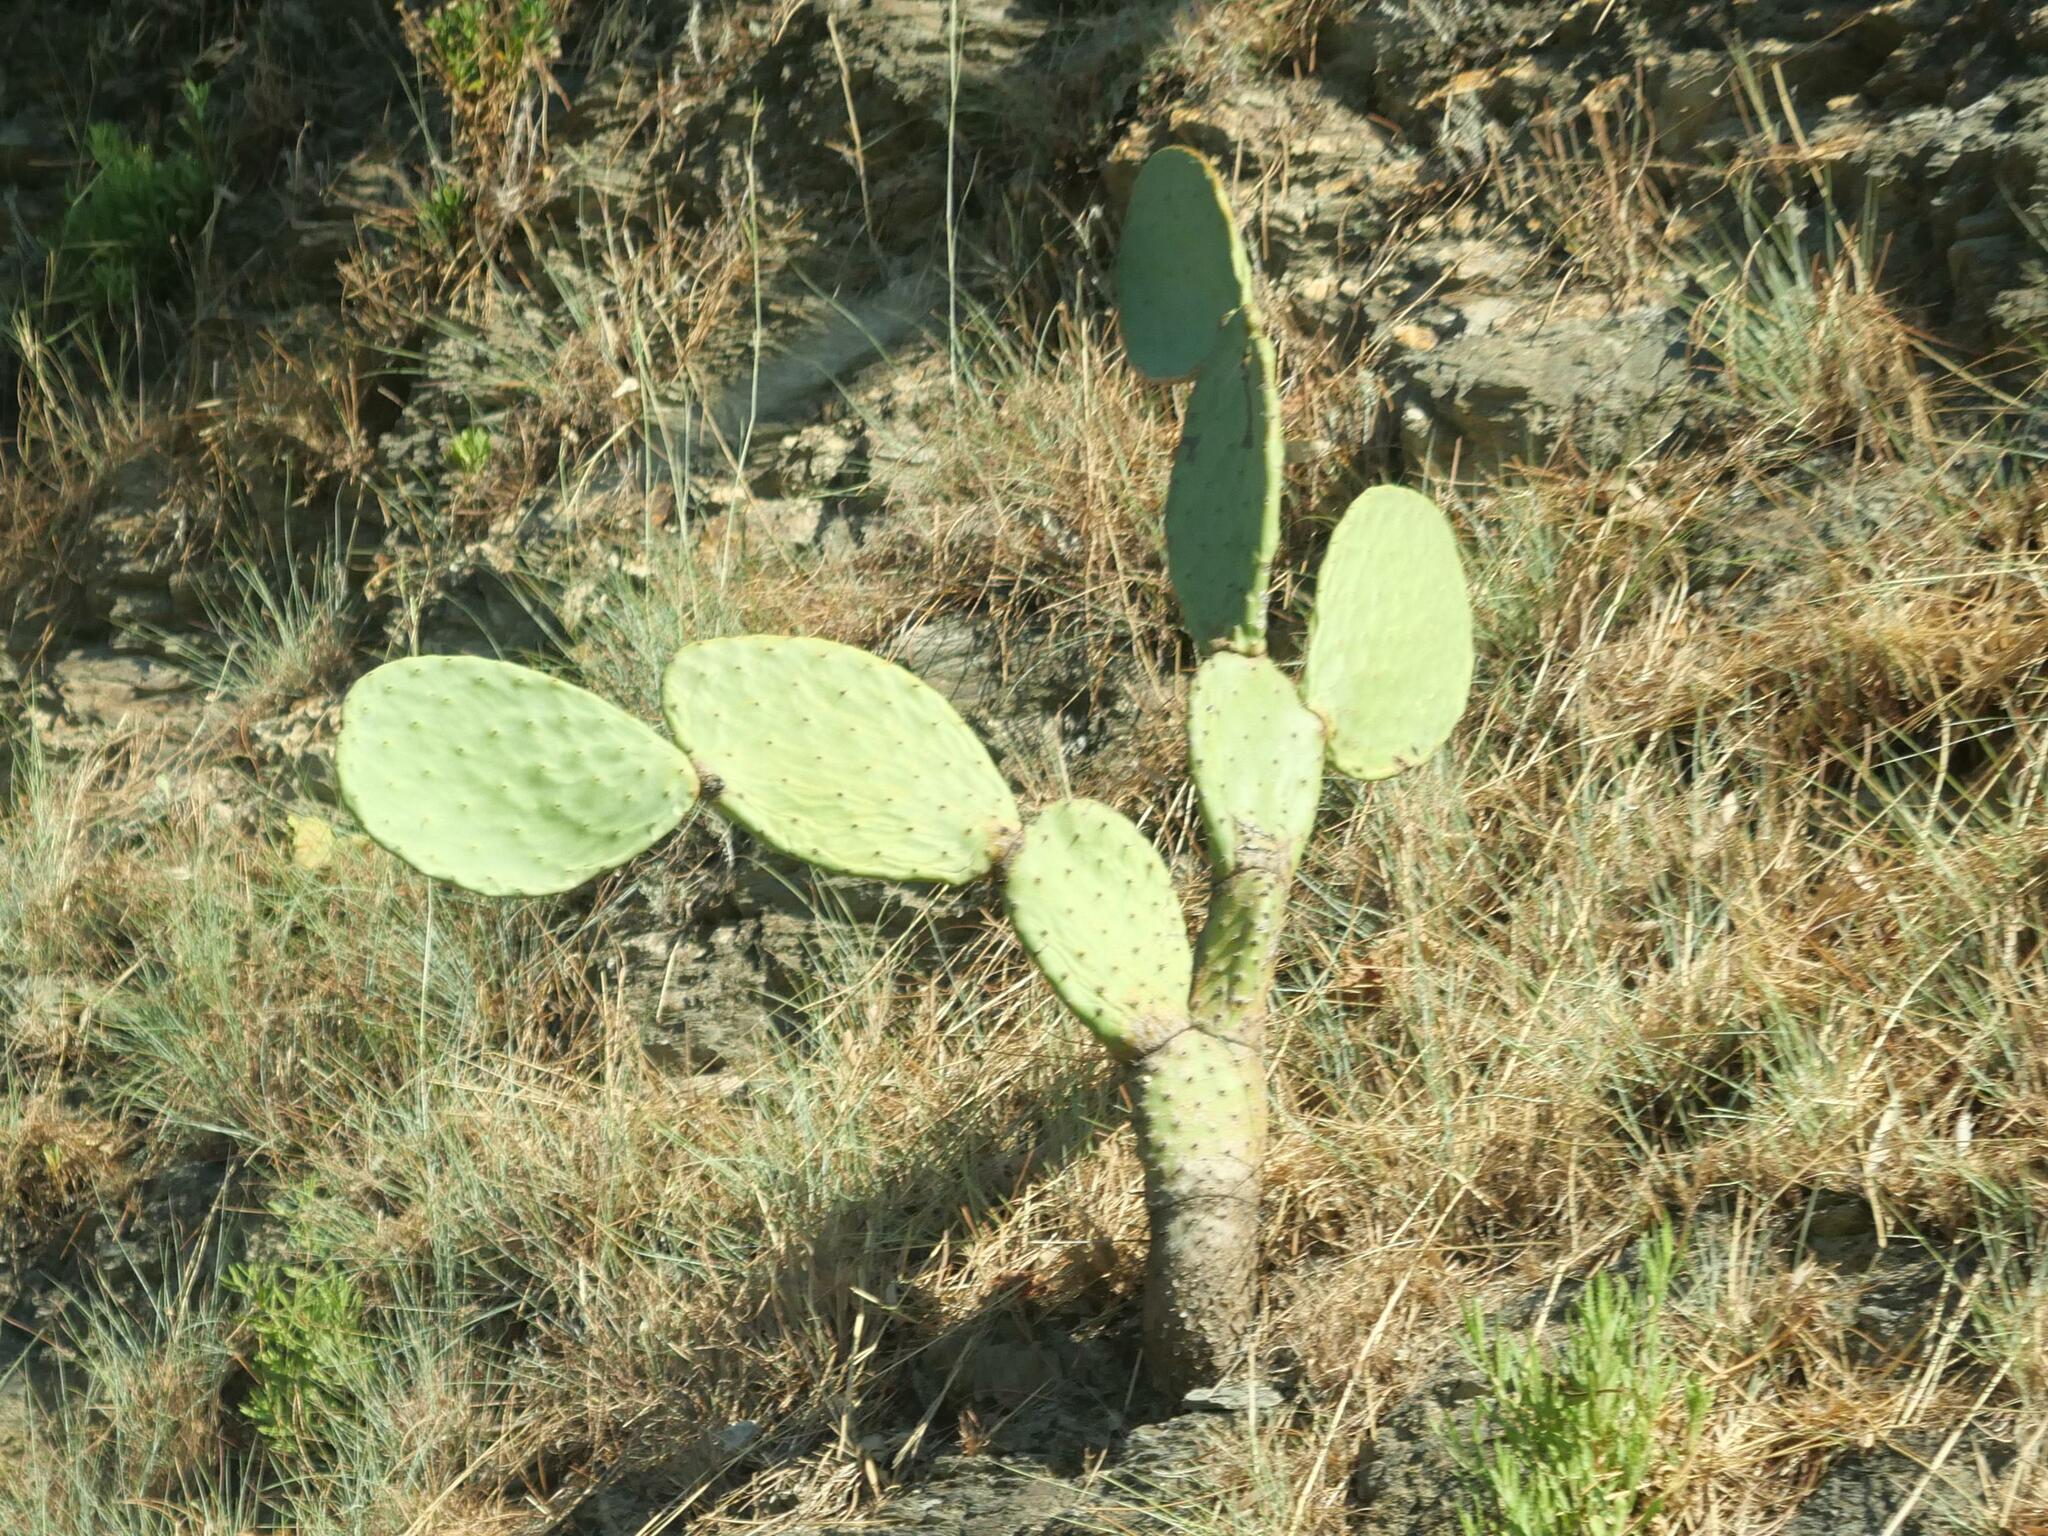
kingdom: Plantae
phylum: Tracheophyta
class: Magnoliopsida
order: Caryophyllales
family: Cactaceae
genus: Opuntia
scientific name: Opuntia ficus-indica
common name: Barbary fig
